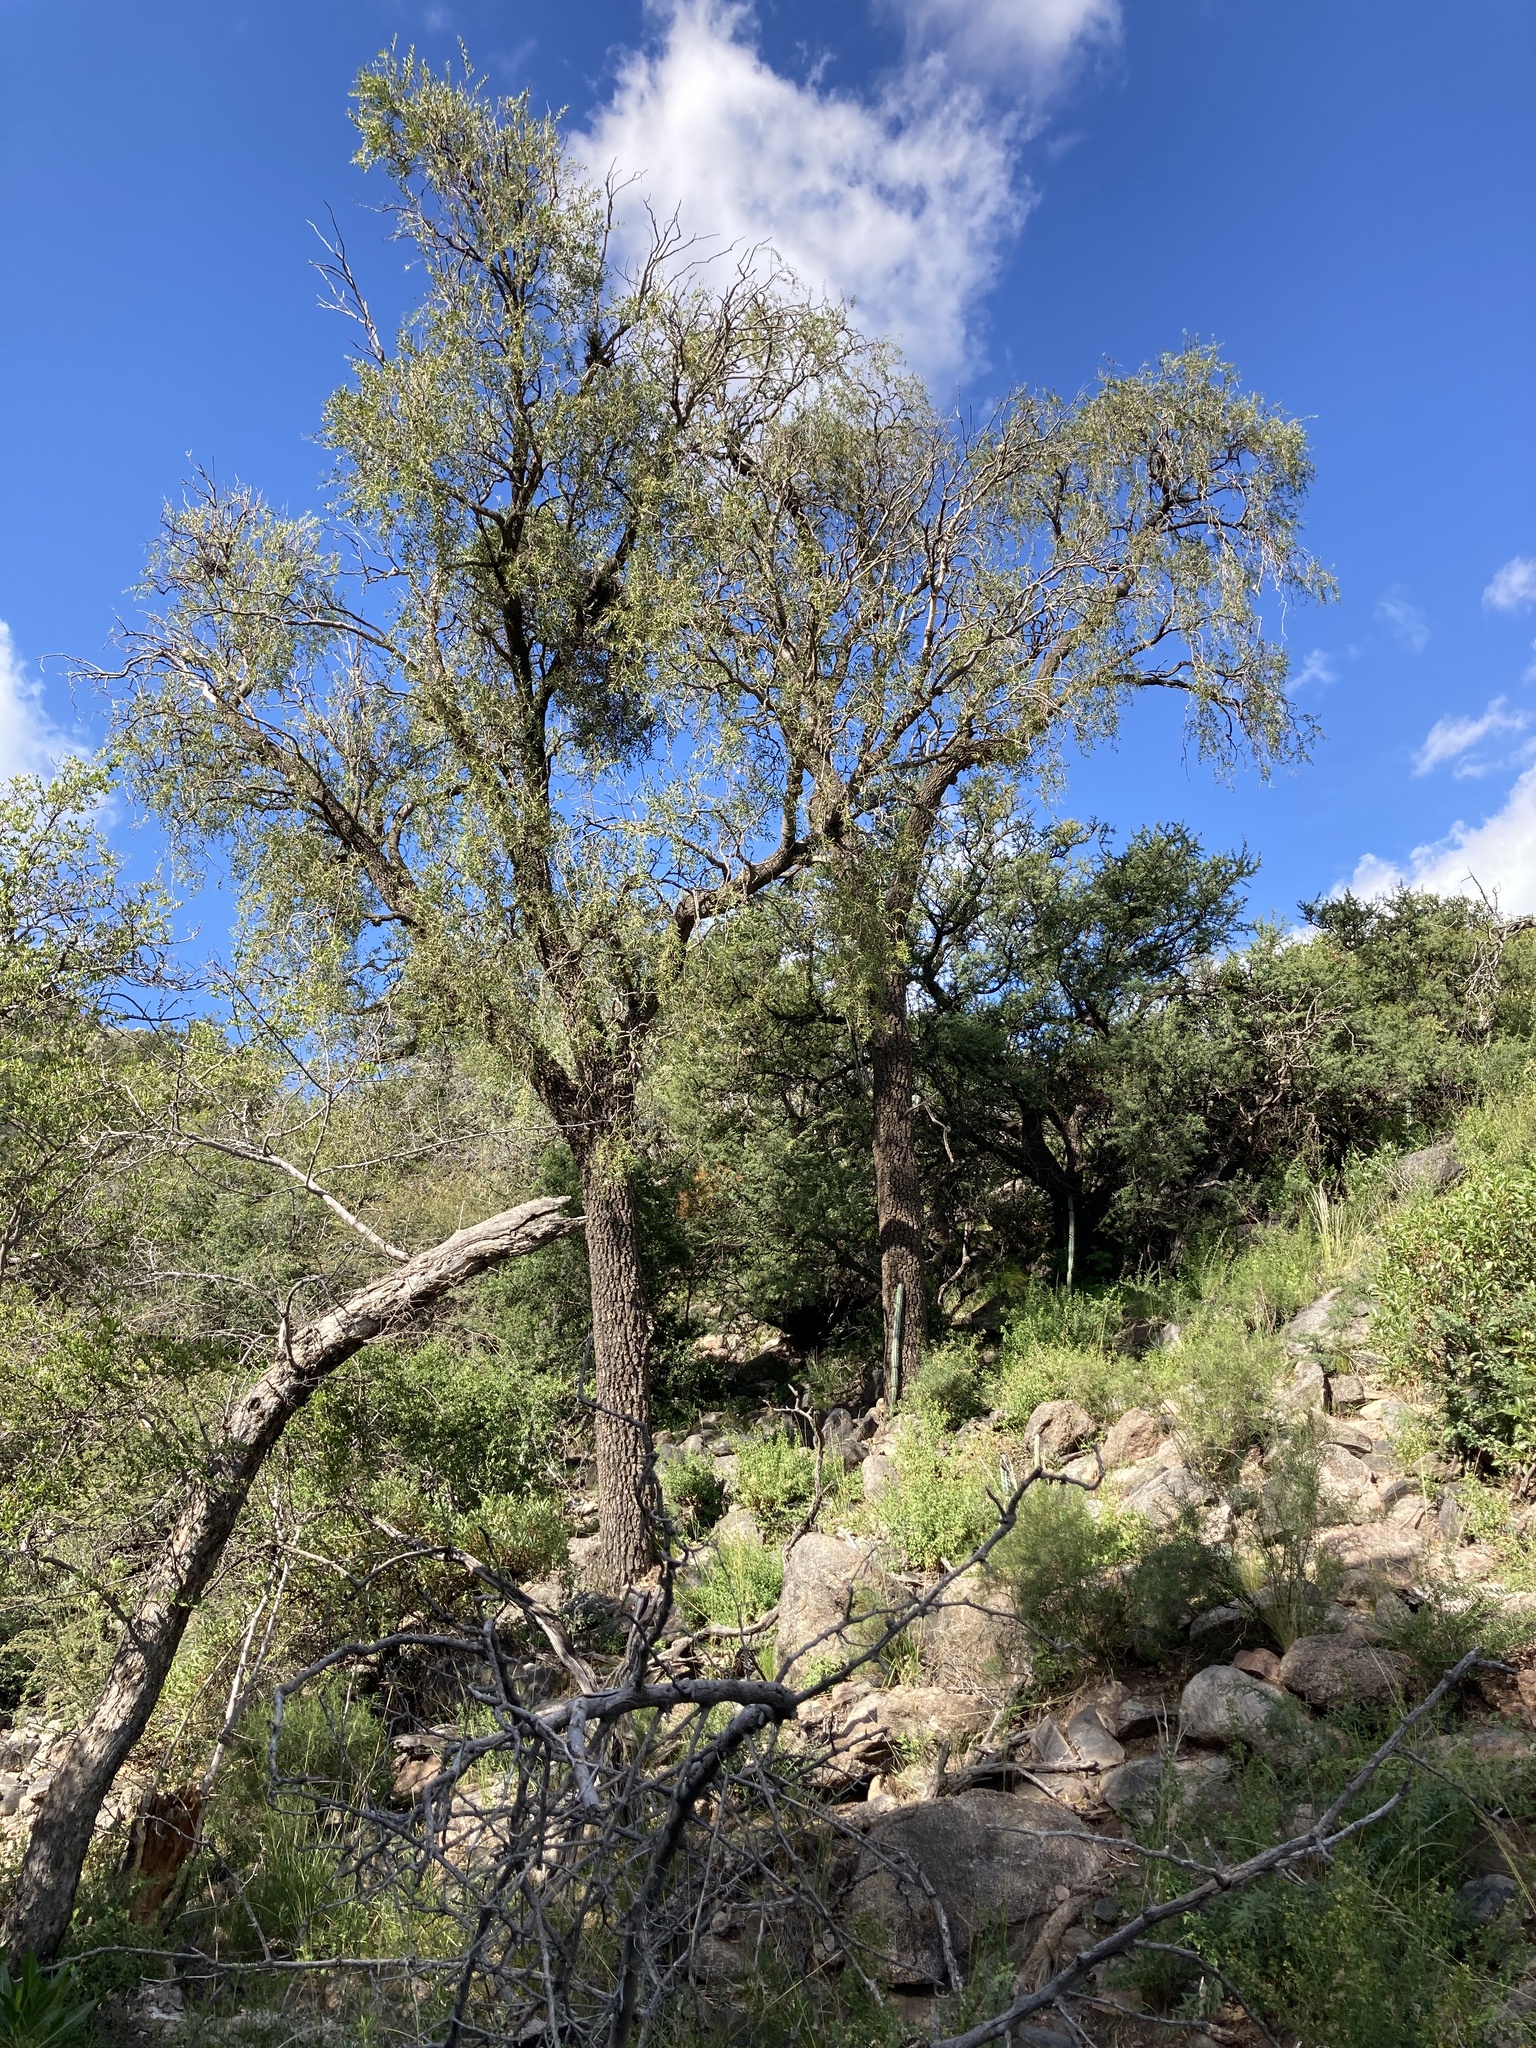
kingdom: Plantae
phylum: Tracheophyta
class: Magnoliopsida
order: Gentianales
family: Apocynaceae
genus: Aspidosperma
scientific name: Aspidosperma quebracho-blanco
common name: White quebracho
